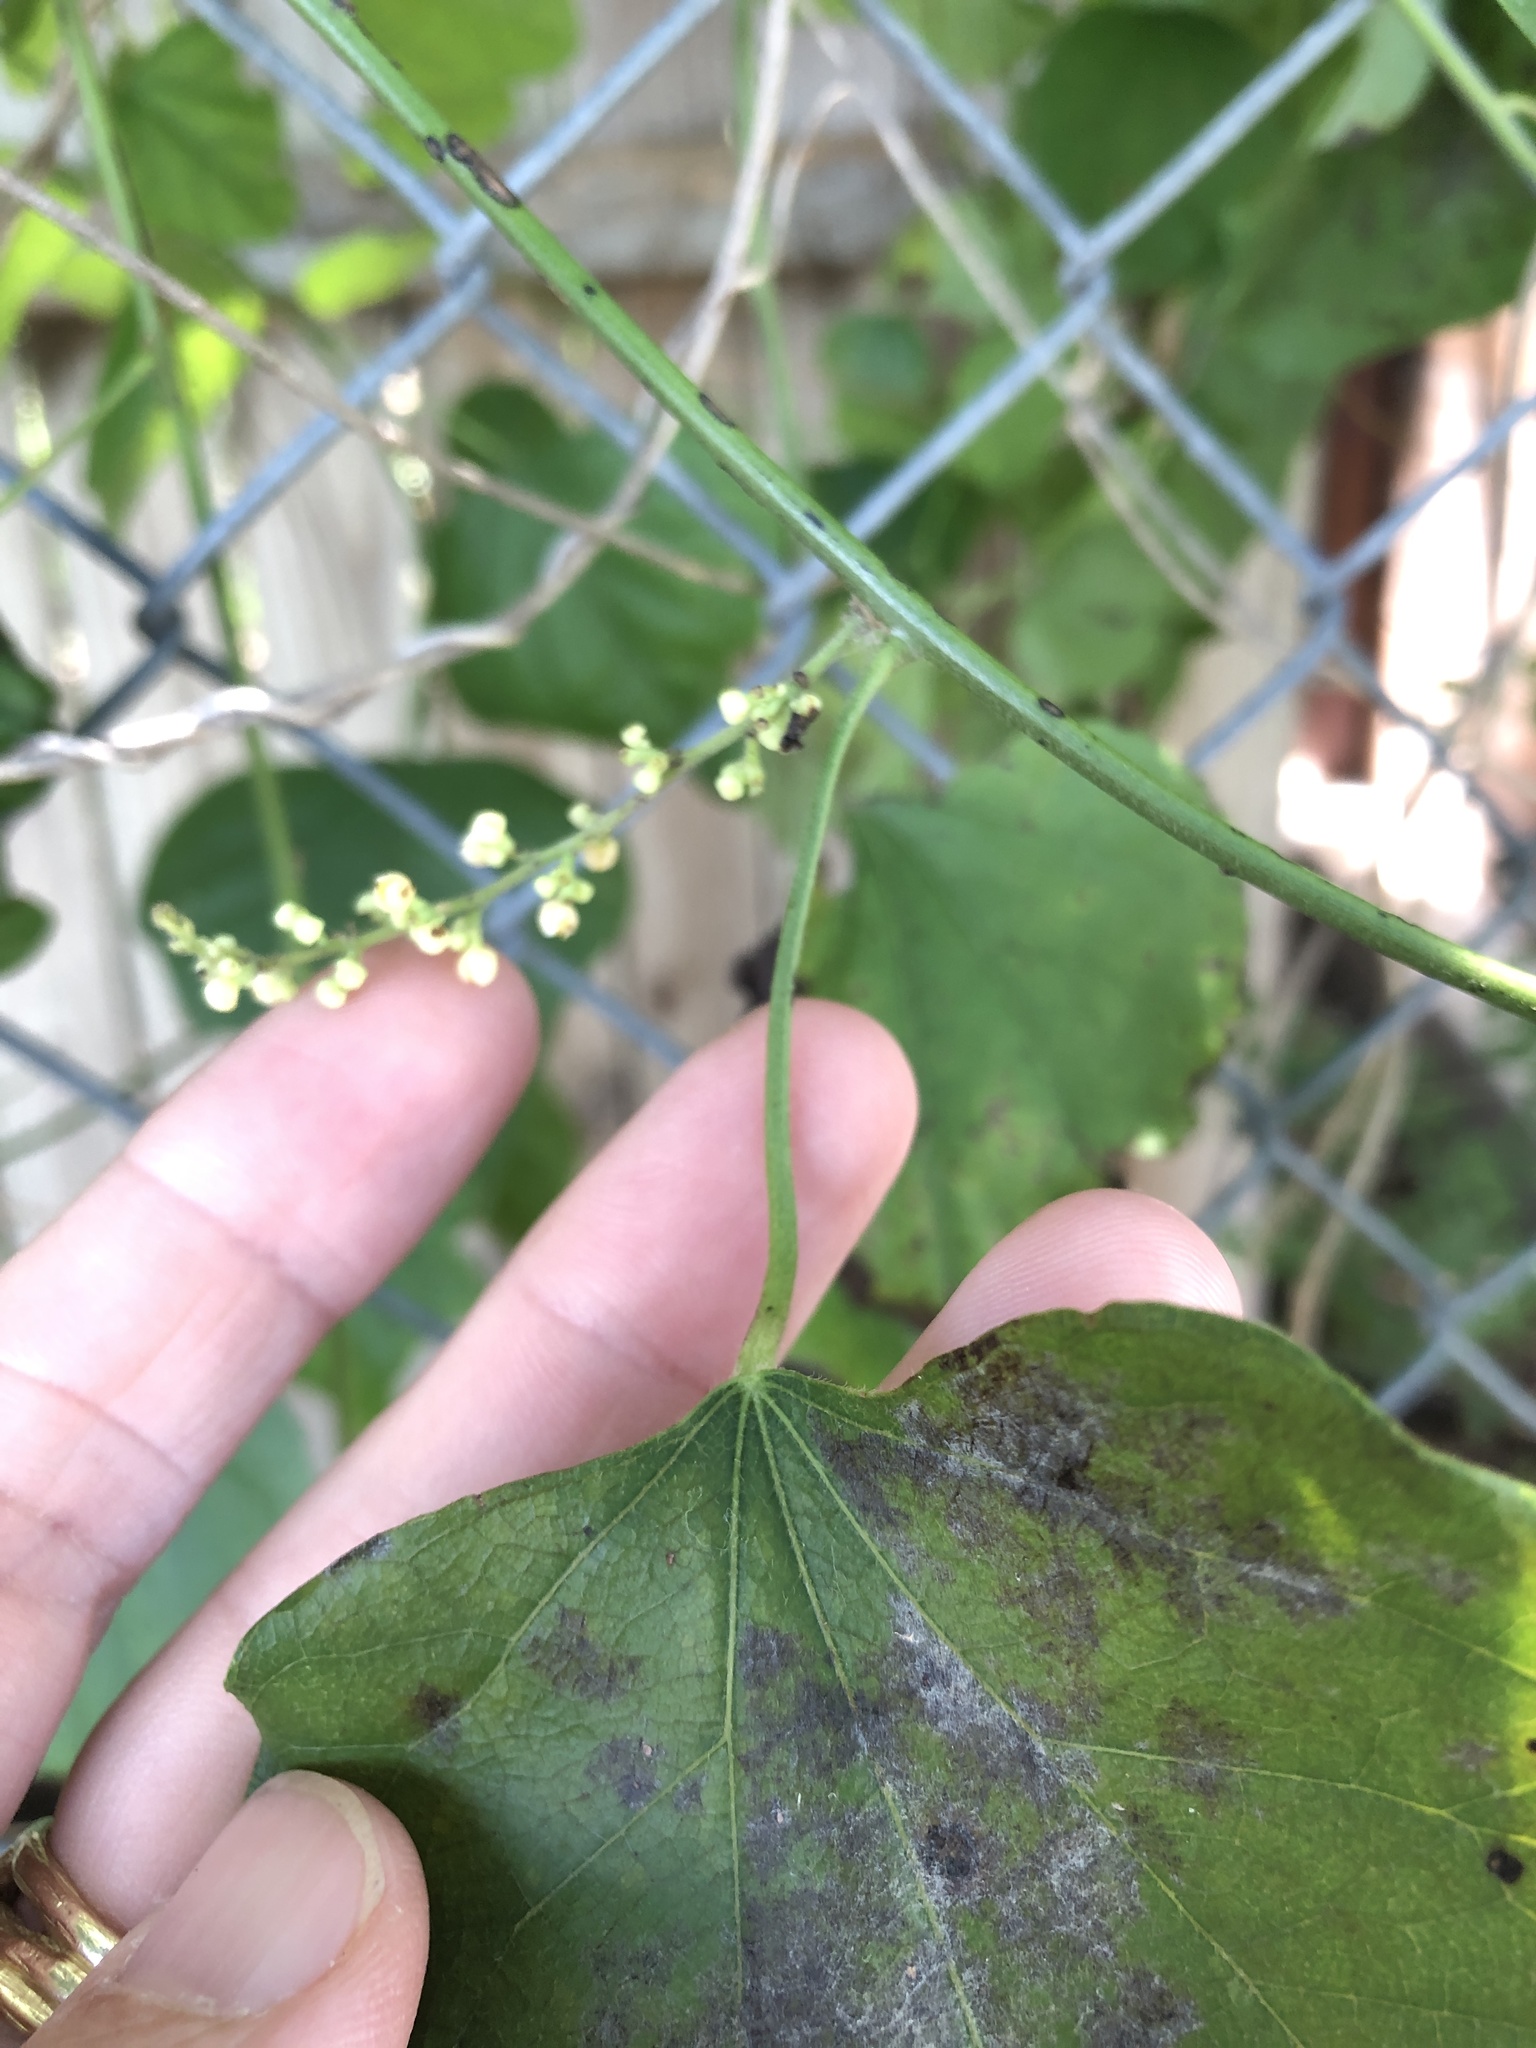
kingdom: Plantae
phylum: Tracheophyta
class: Magnoliopsida
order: Ranunculales
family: Menispermaceae
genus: Cocculus
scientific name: Cocculus carolinus
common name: Carolina moonseed
